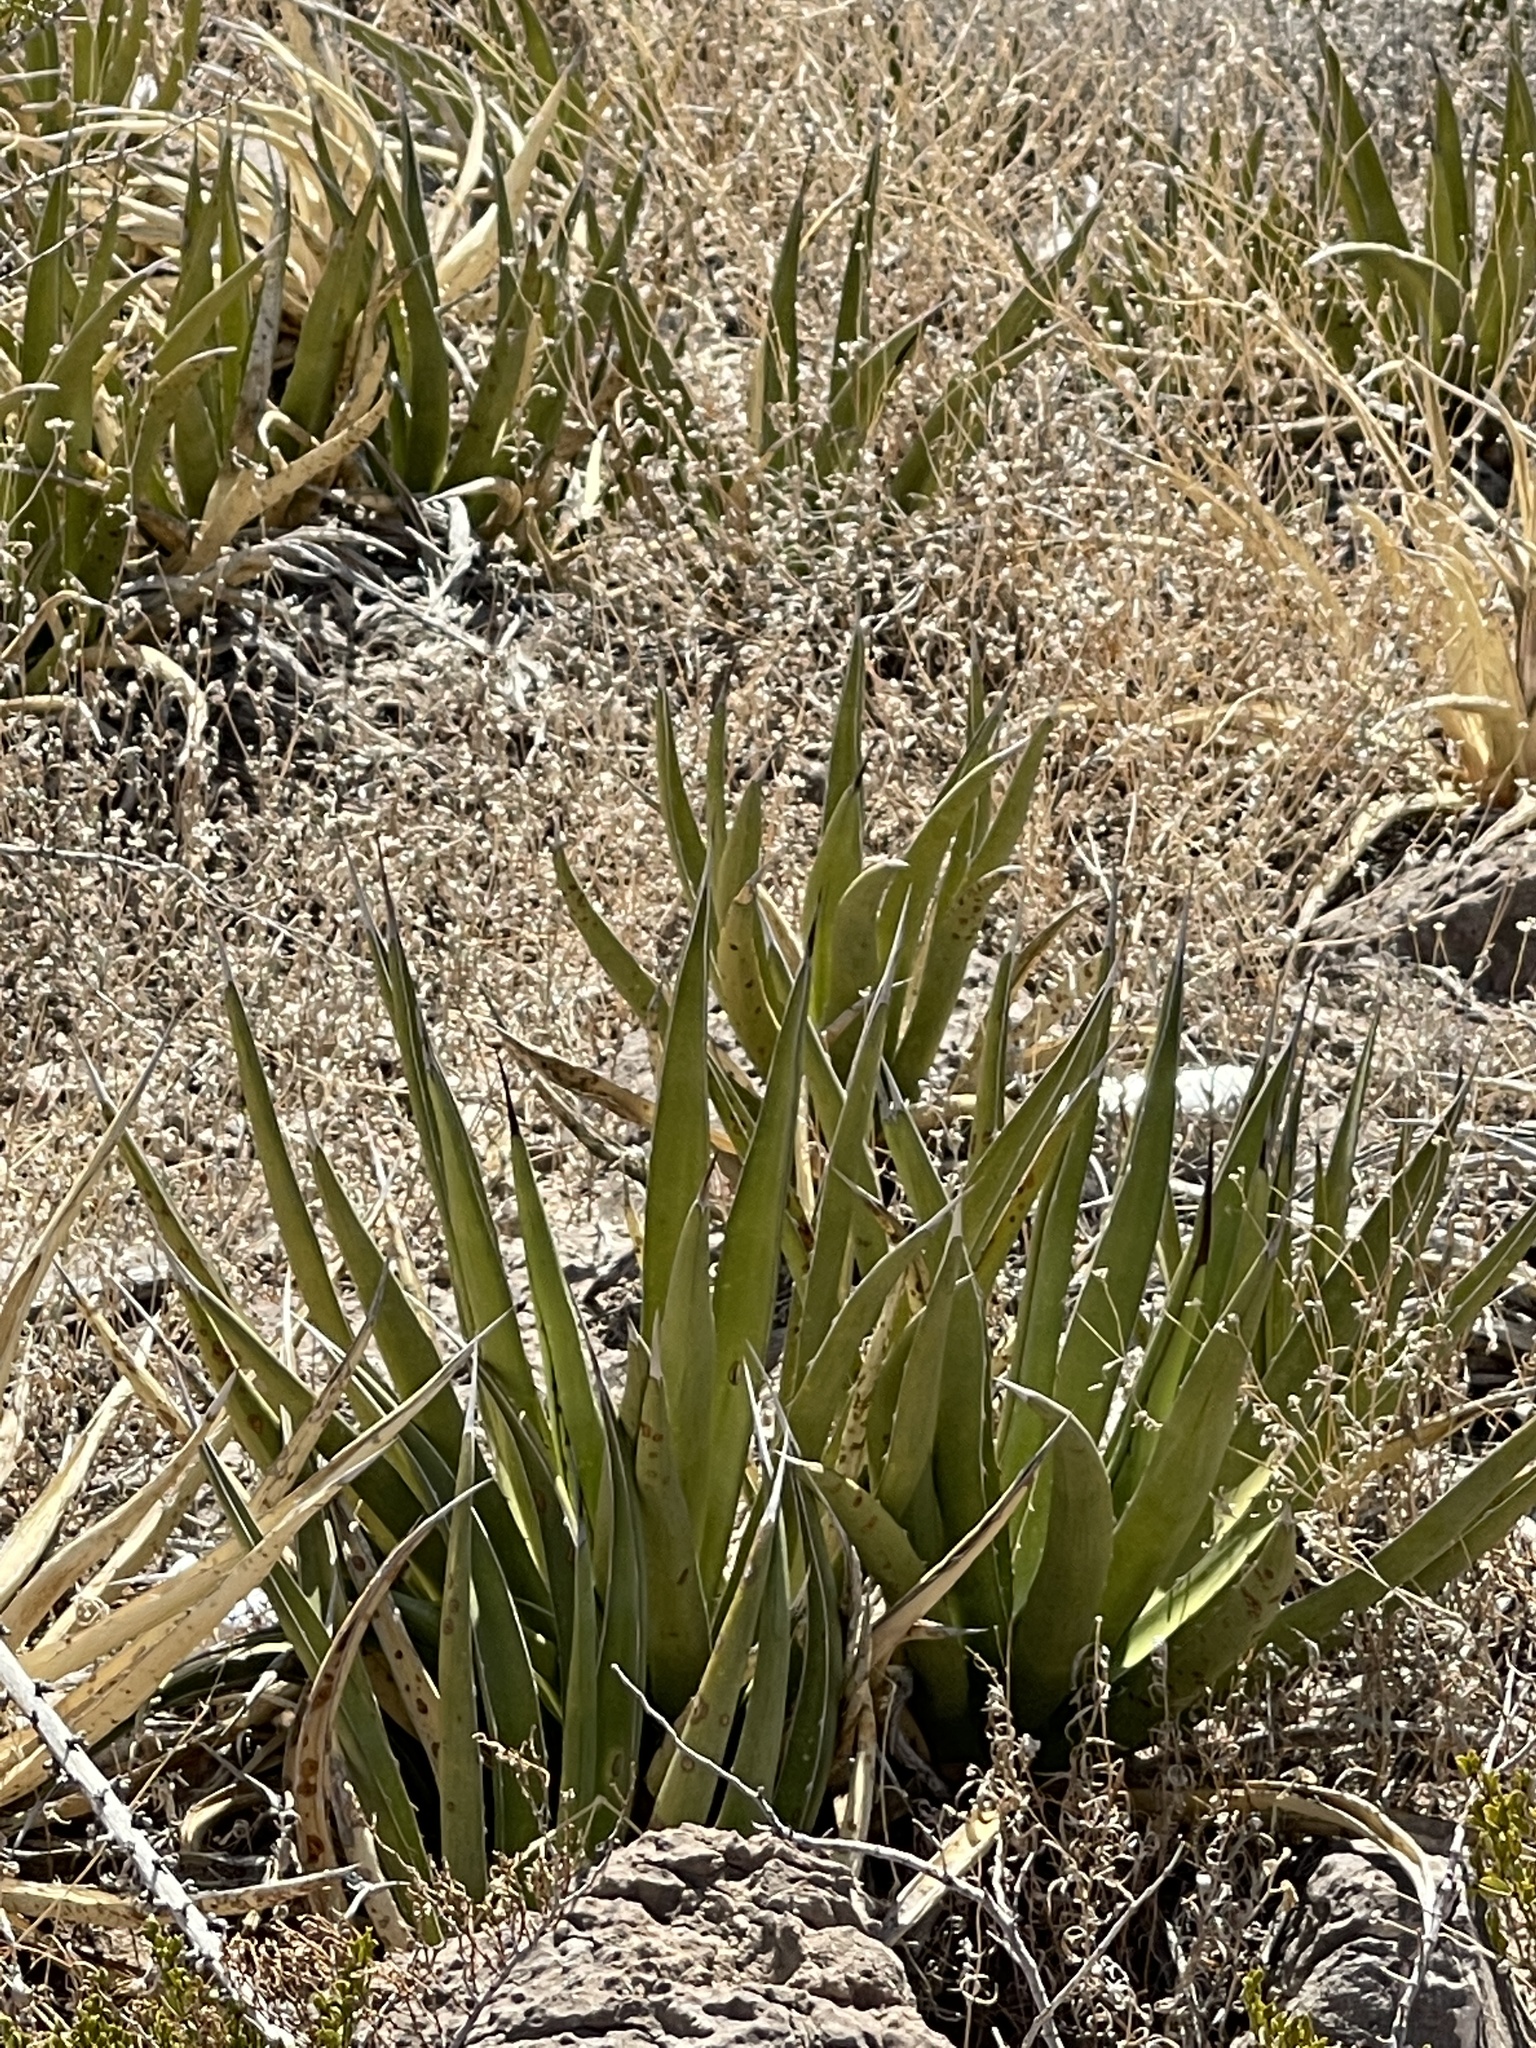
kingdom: Plantae
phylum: Tracheophyta
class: Liliopsida
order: Asparagales
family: Asparagaceae
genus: Agave
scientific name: Agave lechuguilla
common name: Lecheguilla agave
